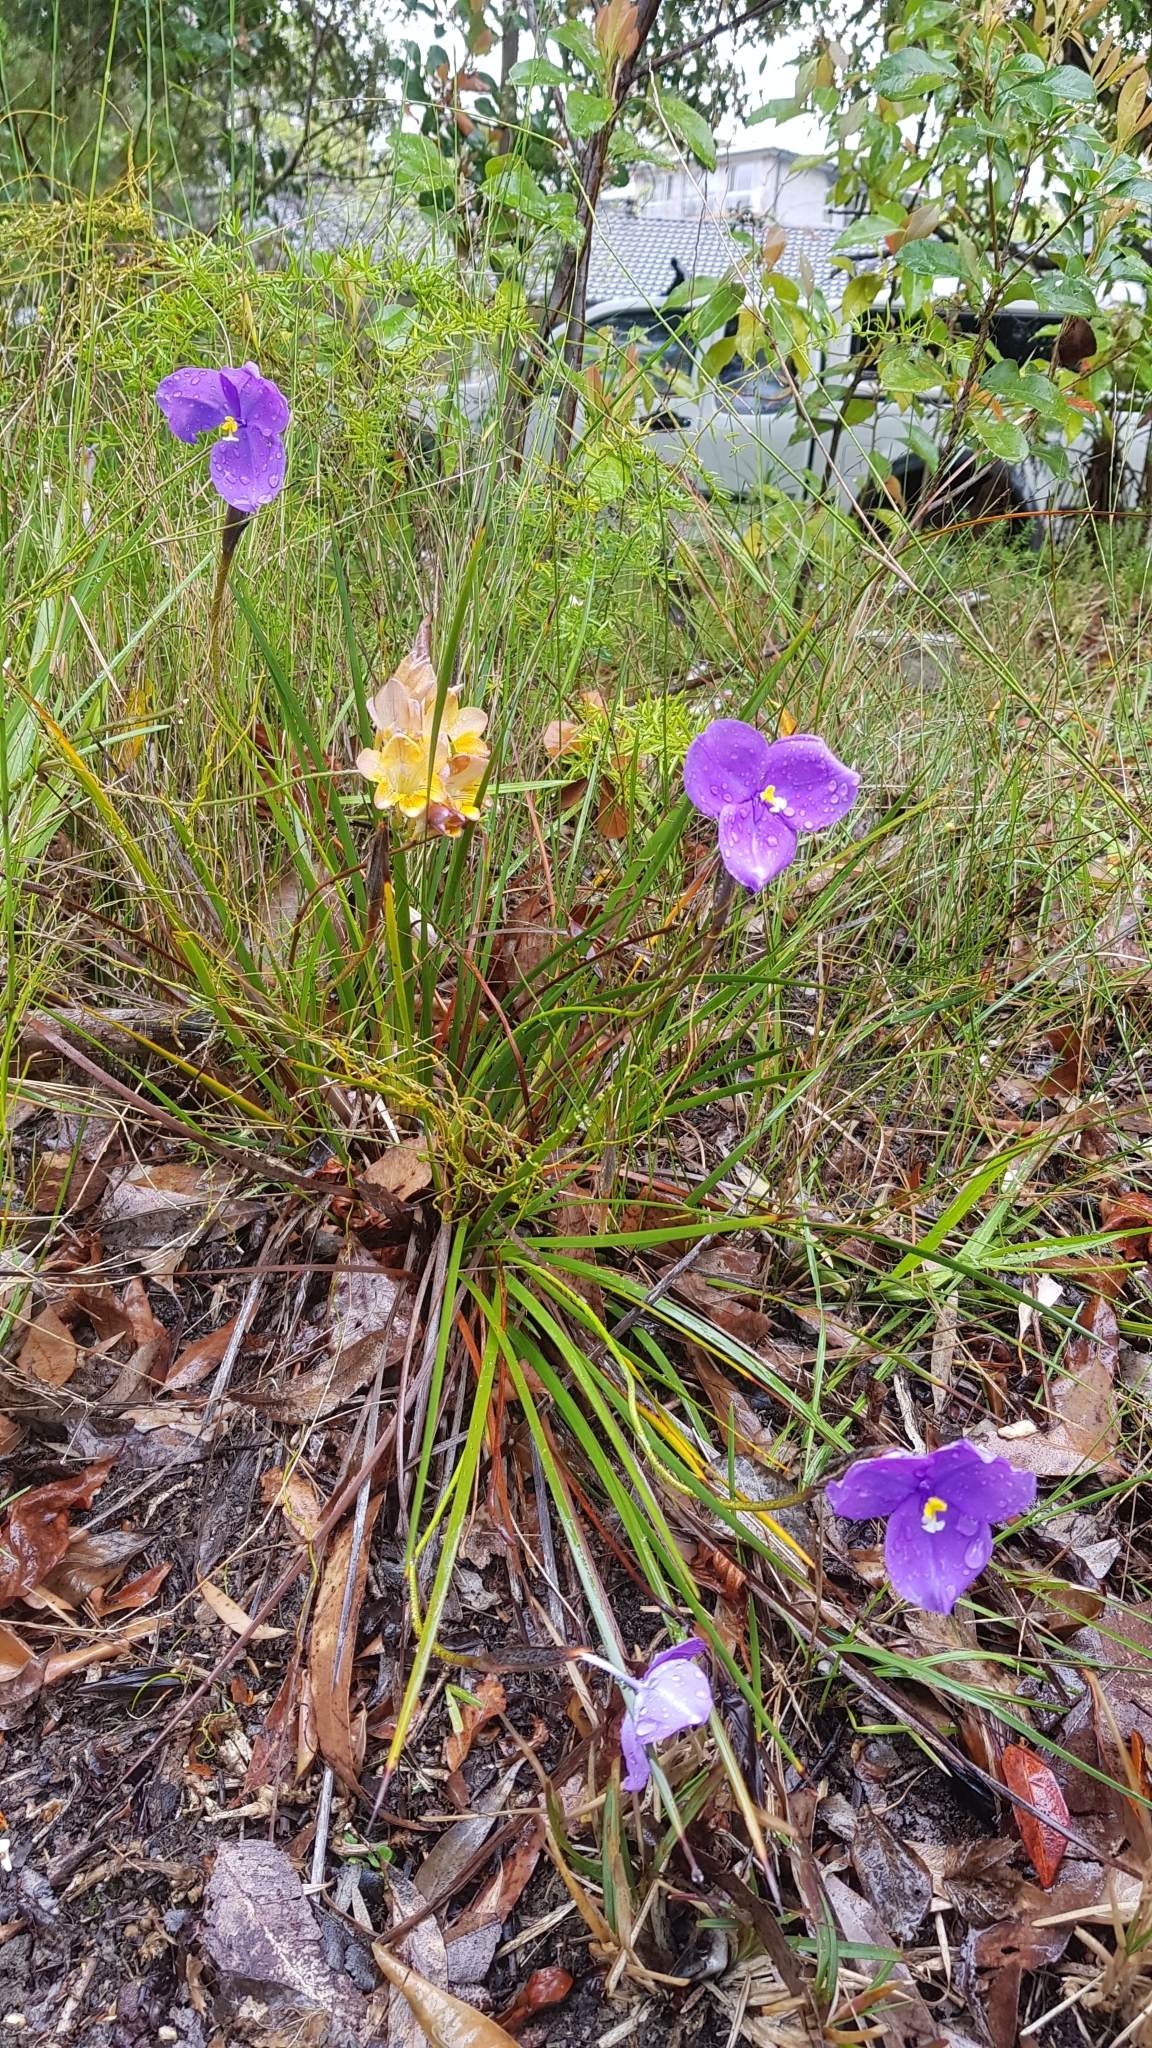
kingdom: Plantae
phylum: Tracheophyta
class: Liliopsida
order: Asparagales
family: Iridaceae
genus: Patersonia
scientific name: Patersonia sericea
